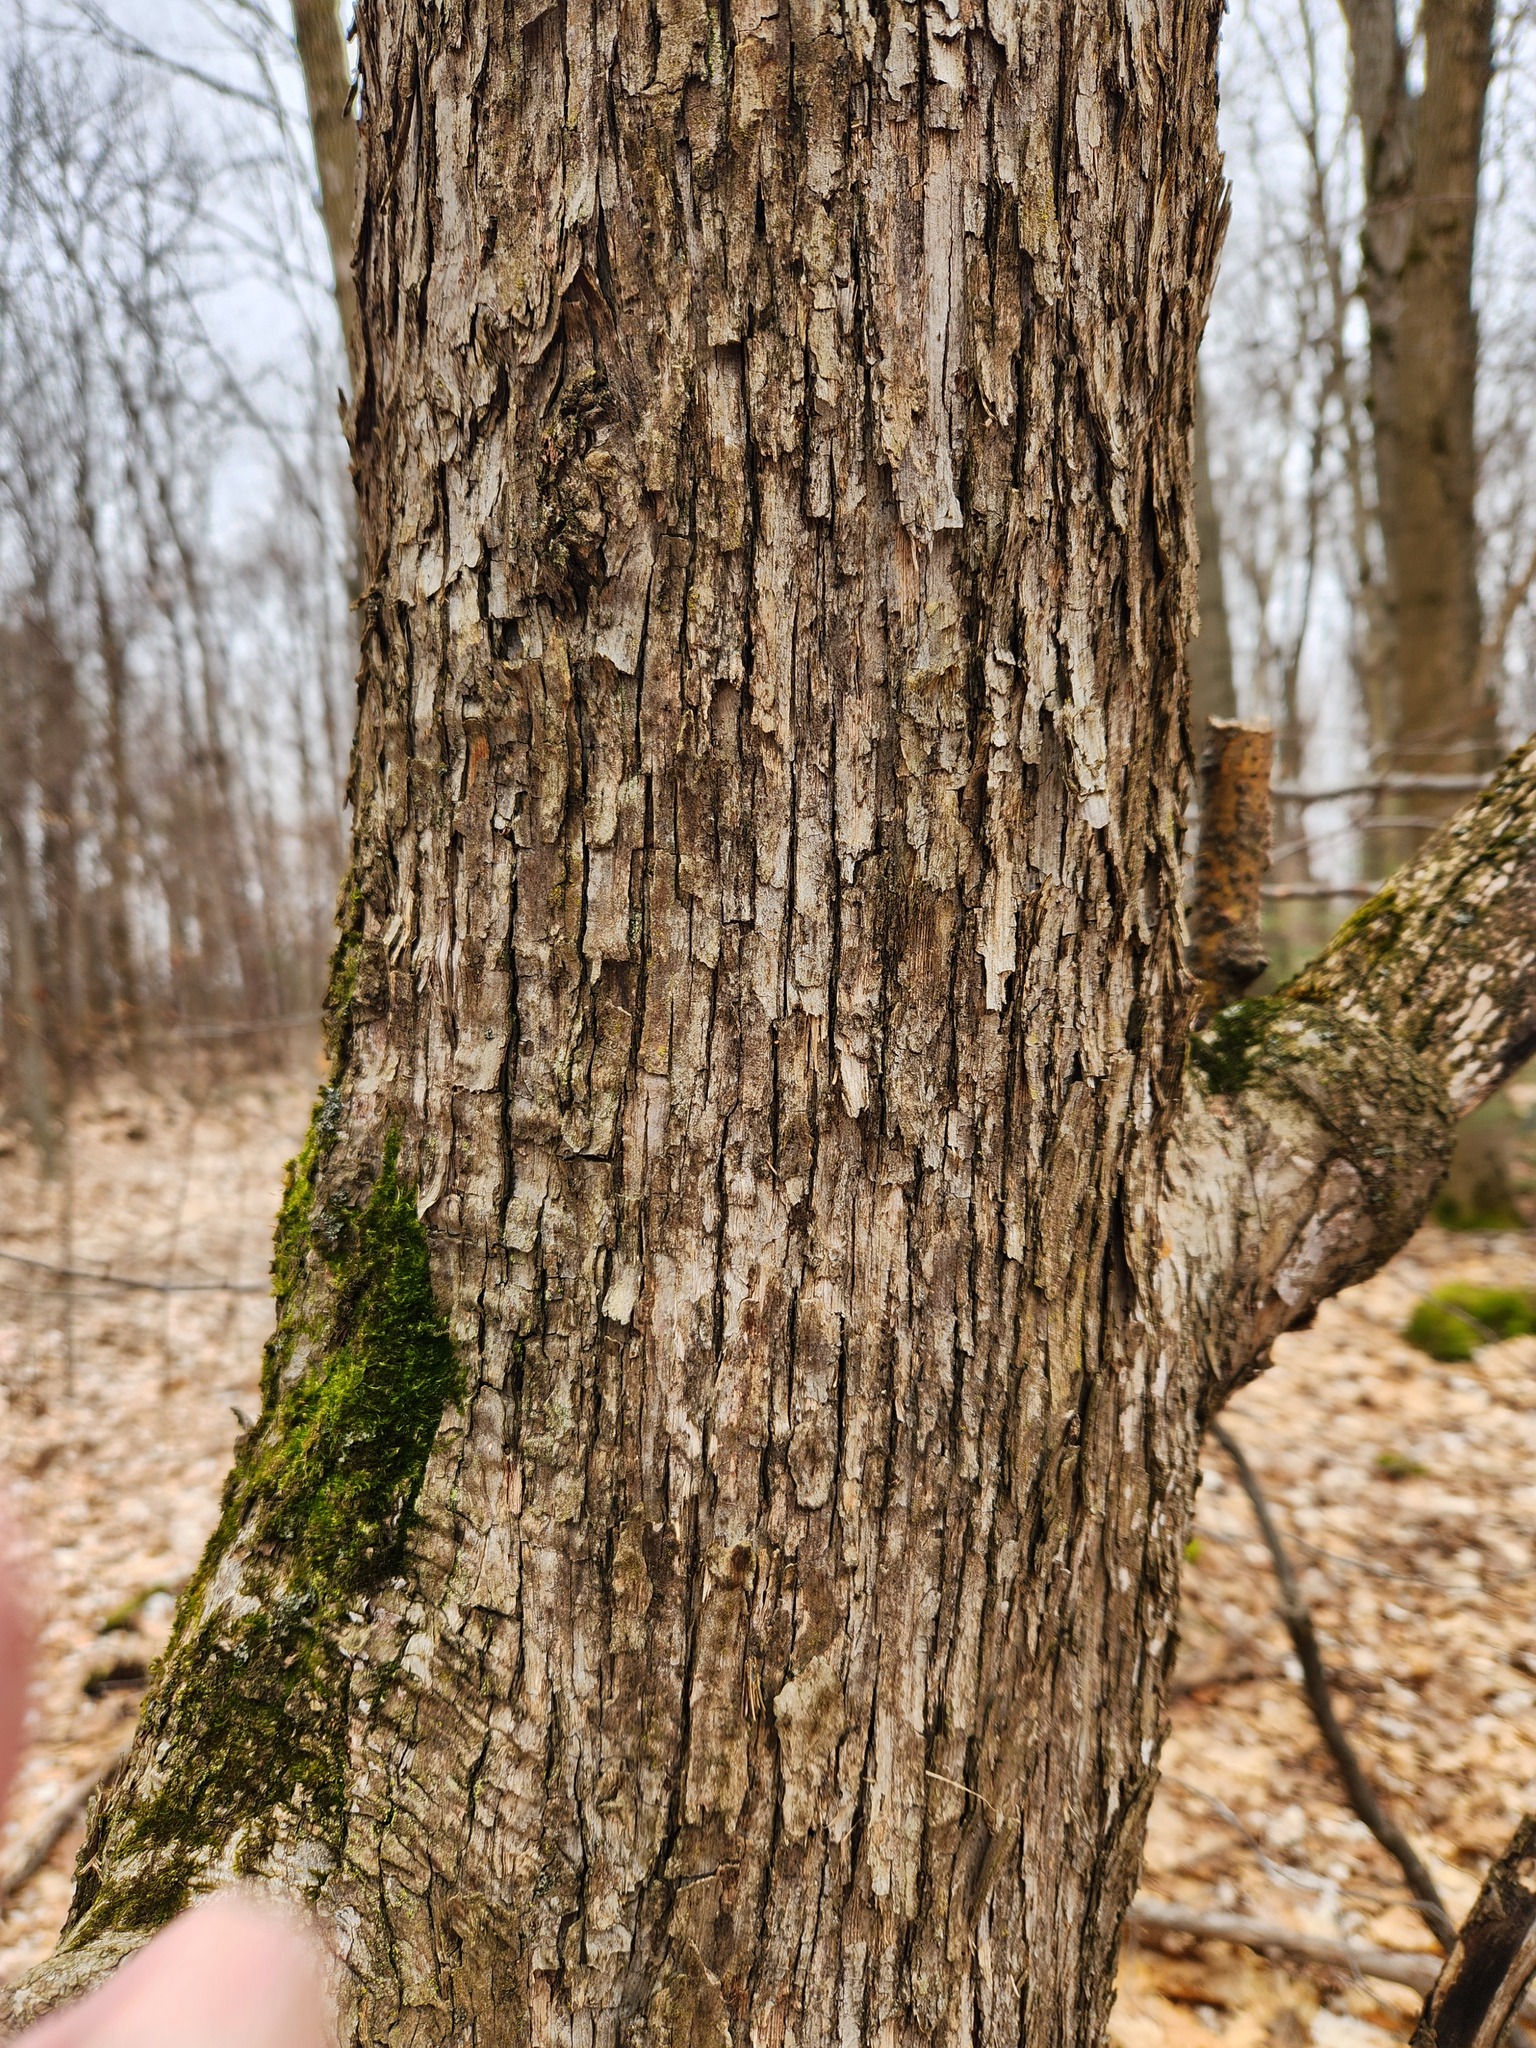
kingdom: Plantae
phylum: Tracheophyta
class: Magnoliopsida
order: Fagales
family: Betulaceae
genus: Ostrya
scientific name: Ostrya virginiana
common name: Ironwood
